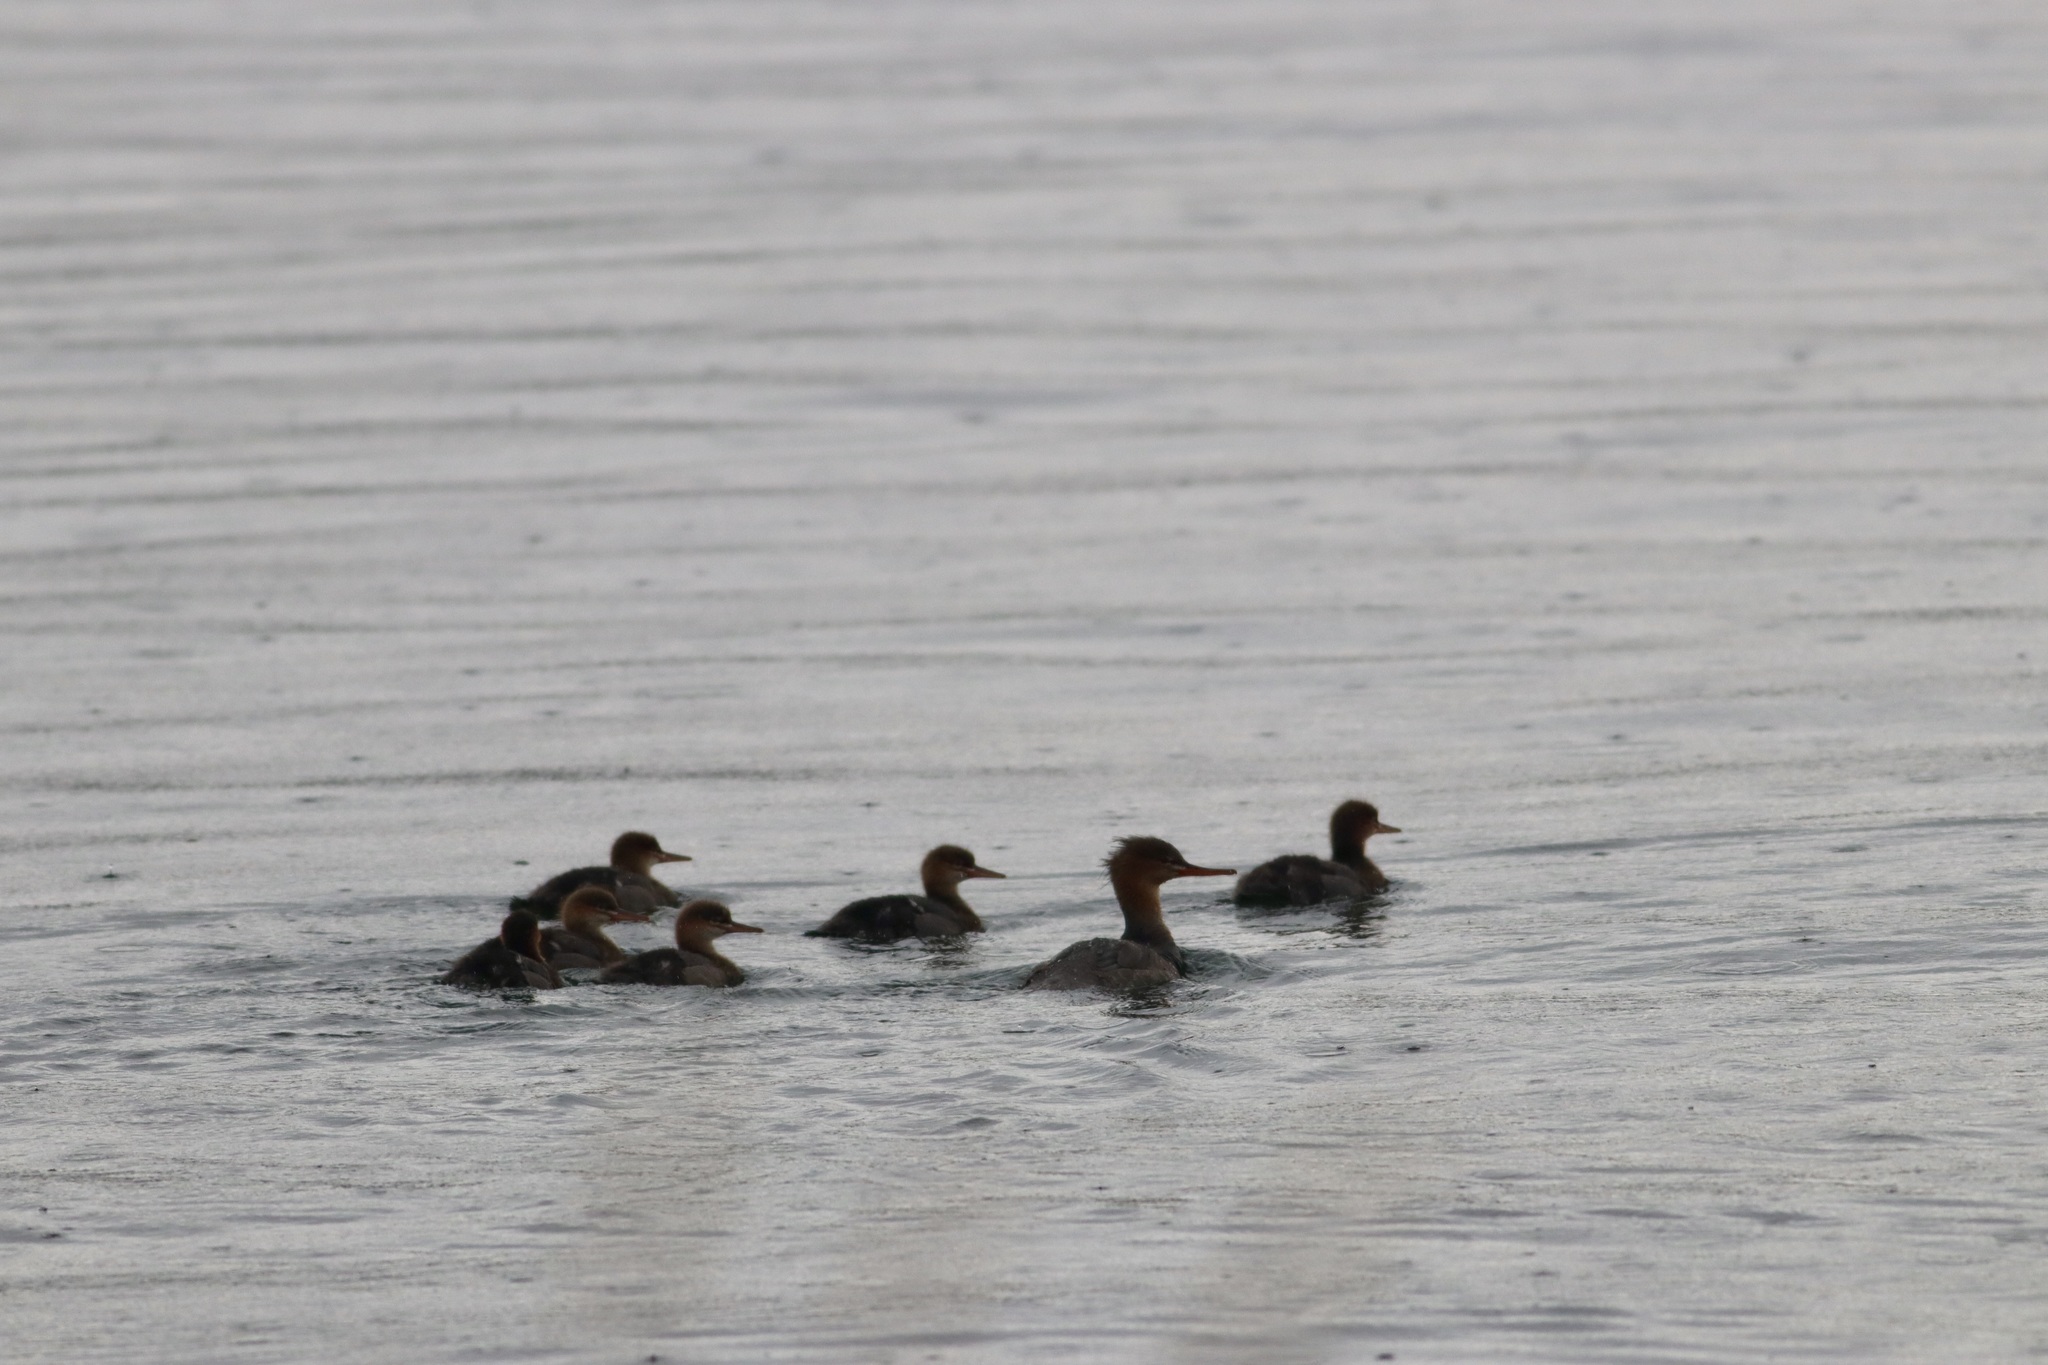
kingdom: Animalia
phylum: Chordata
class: Aves
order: Anseriformes
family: Anatidae
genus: Mergus
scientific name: Mergus serrator
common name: Red-breasted merganser
